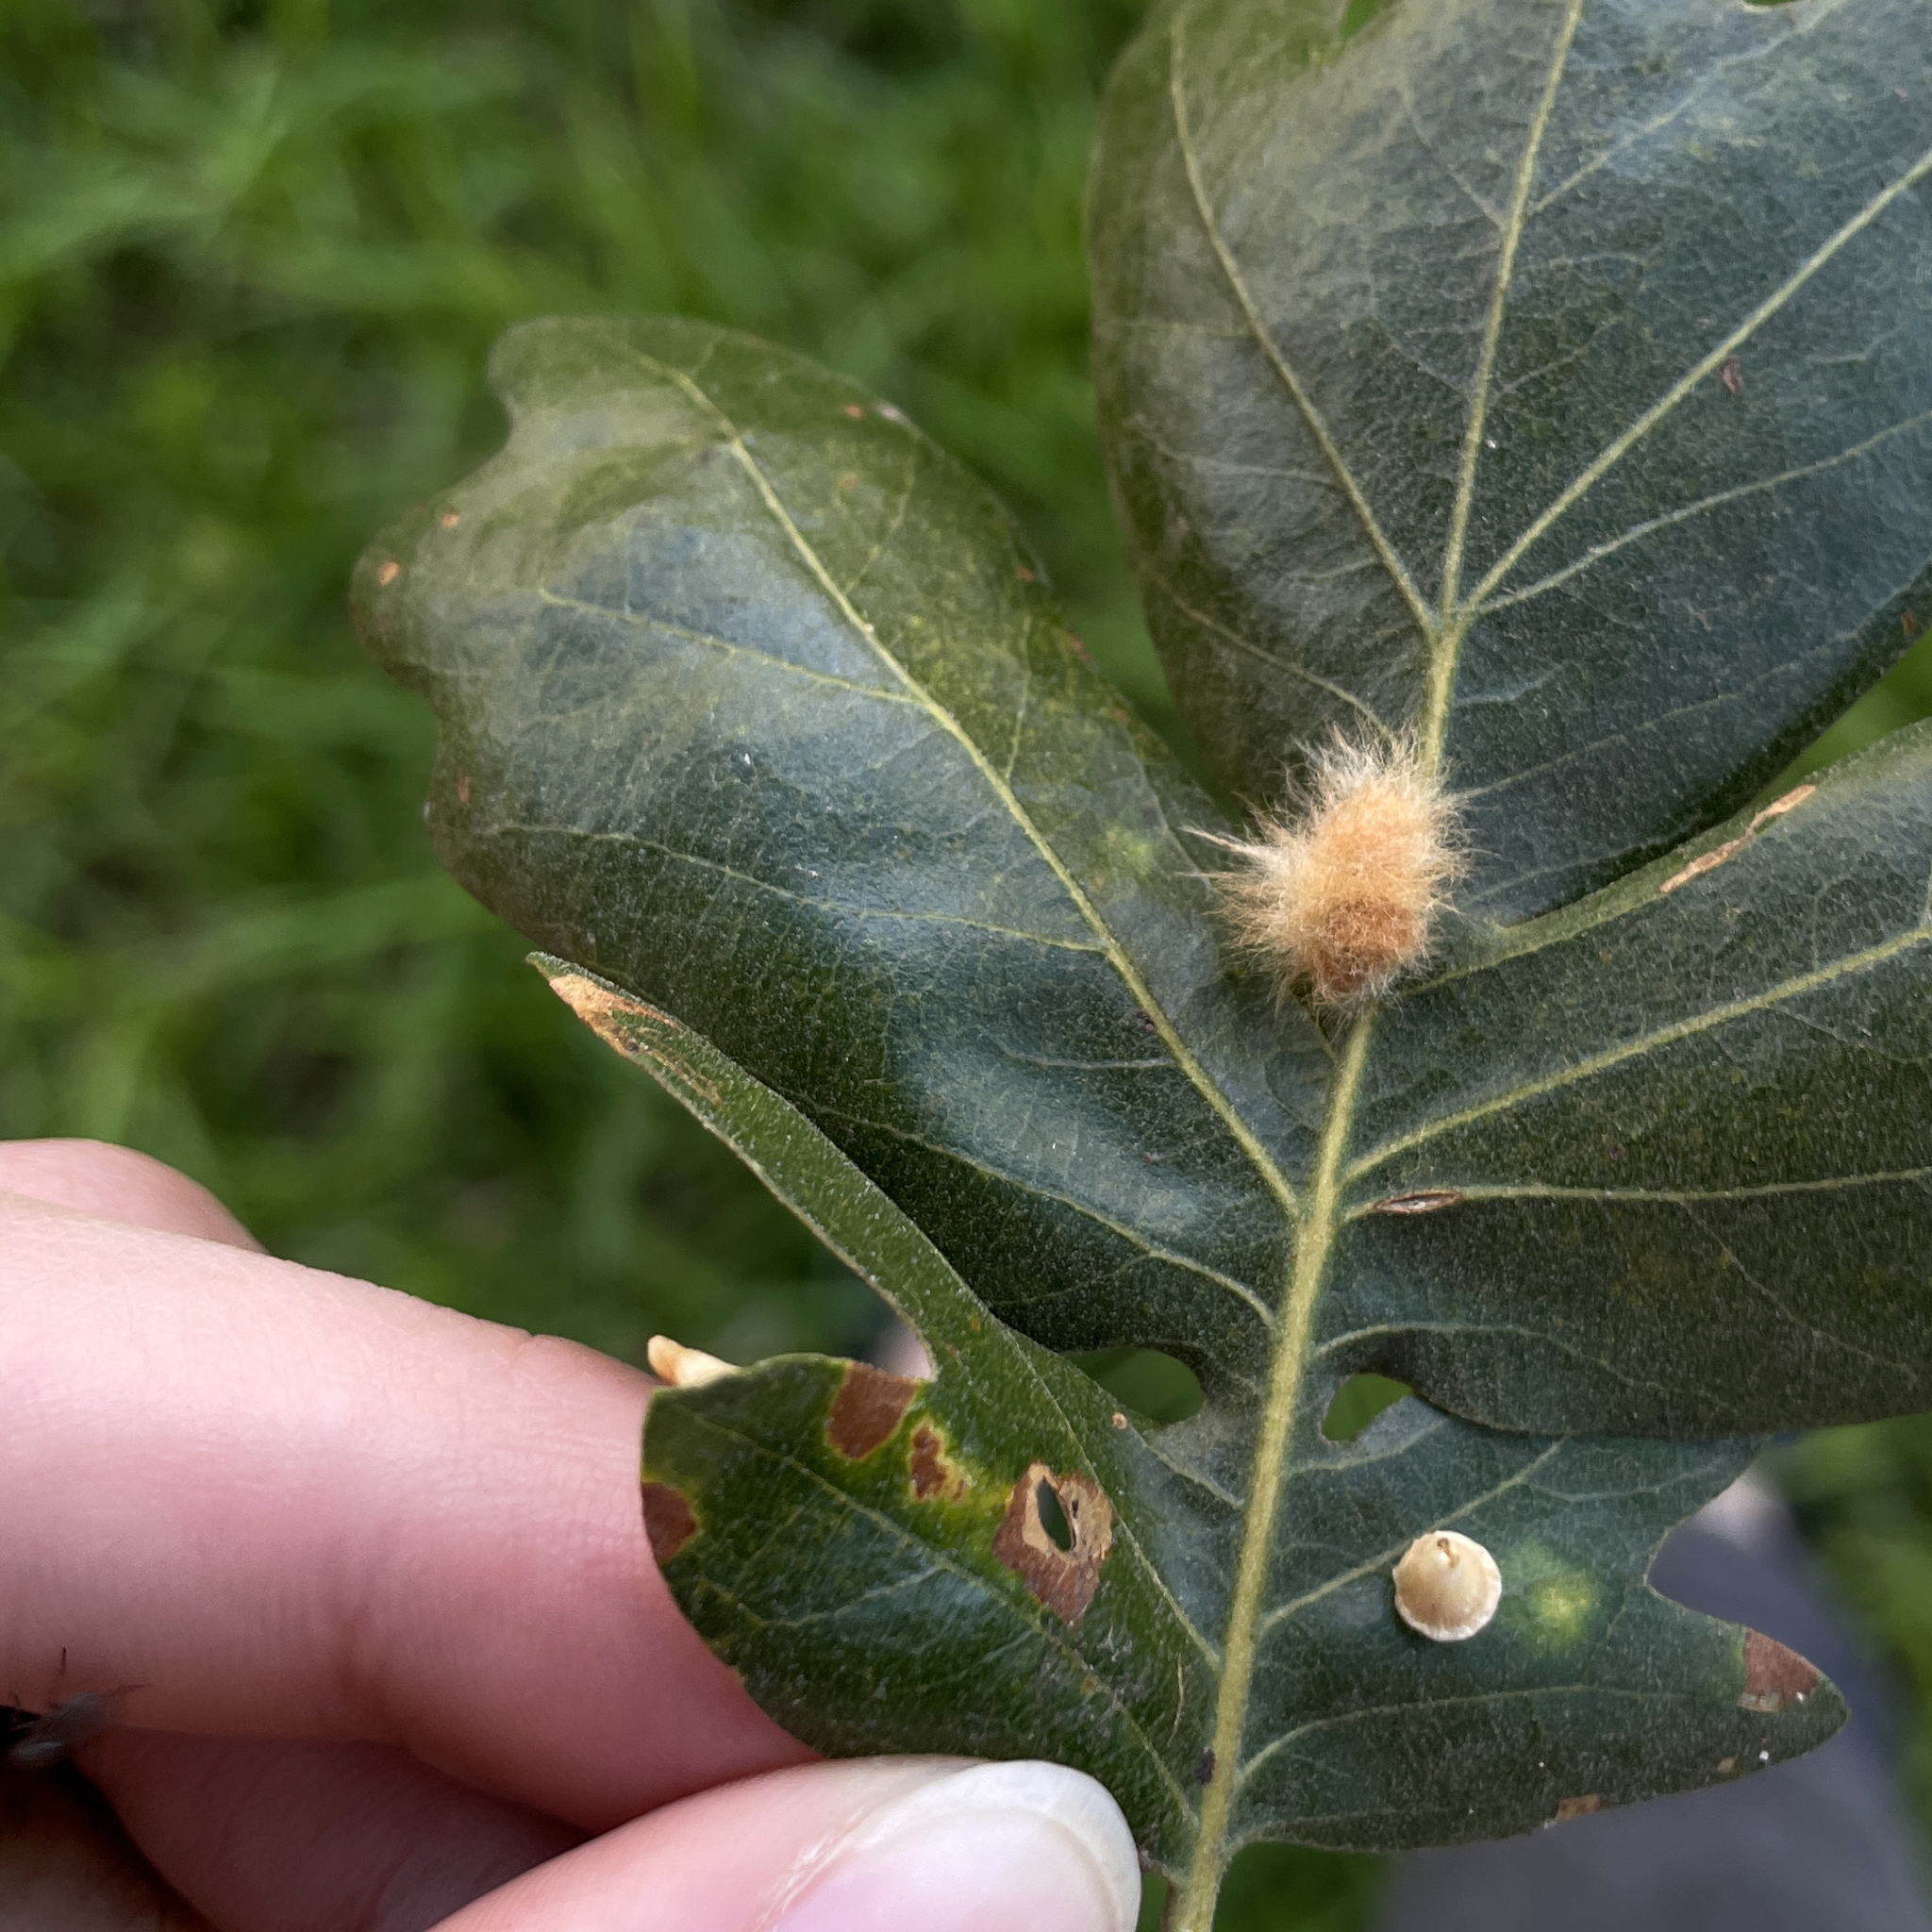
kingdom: Animalia
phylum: Arthropoda
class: Insecta
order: Hymenoptera
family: Cynipidae
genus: Andricus
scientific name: Andricus Druon fullawayi
